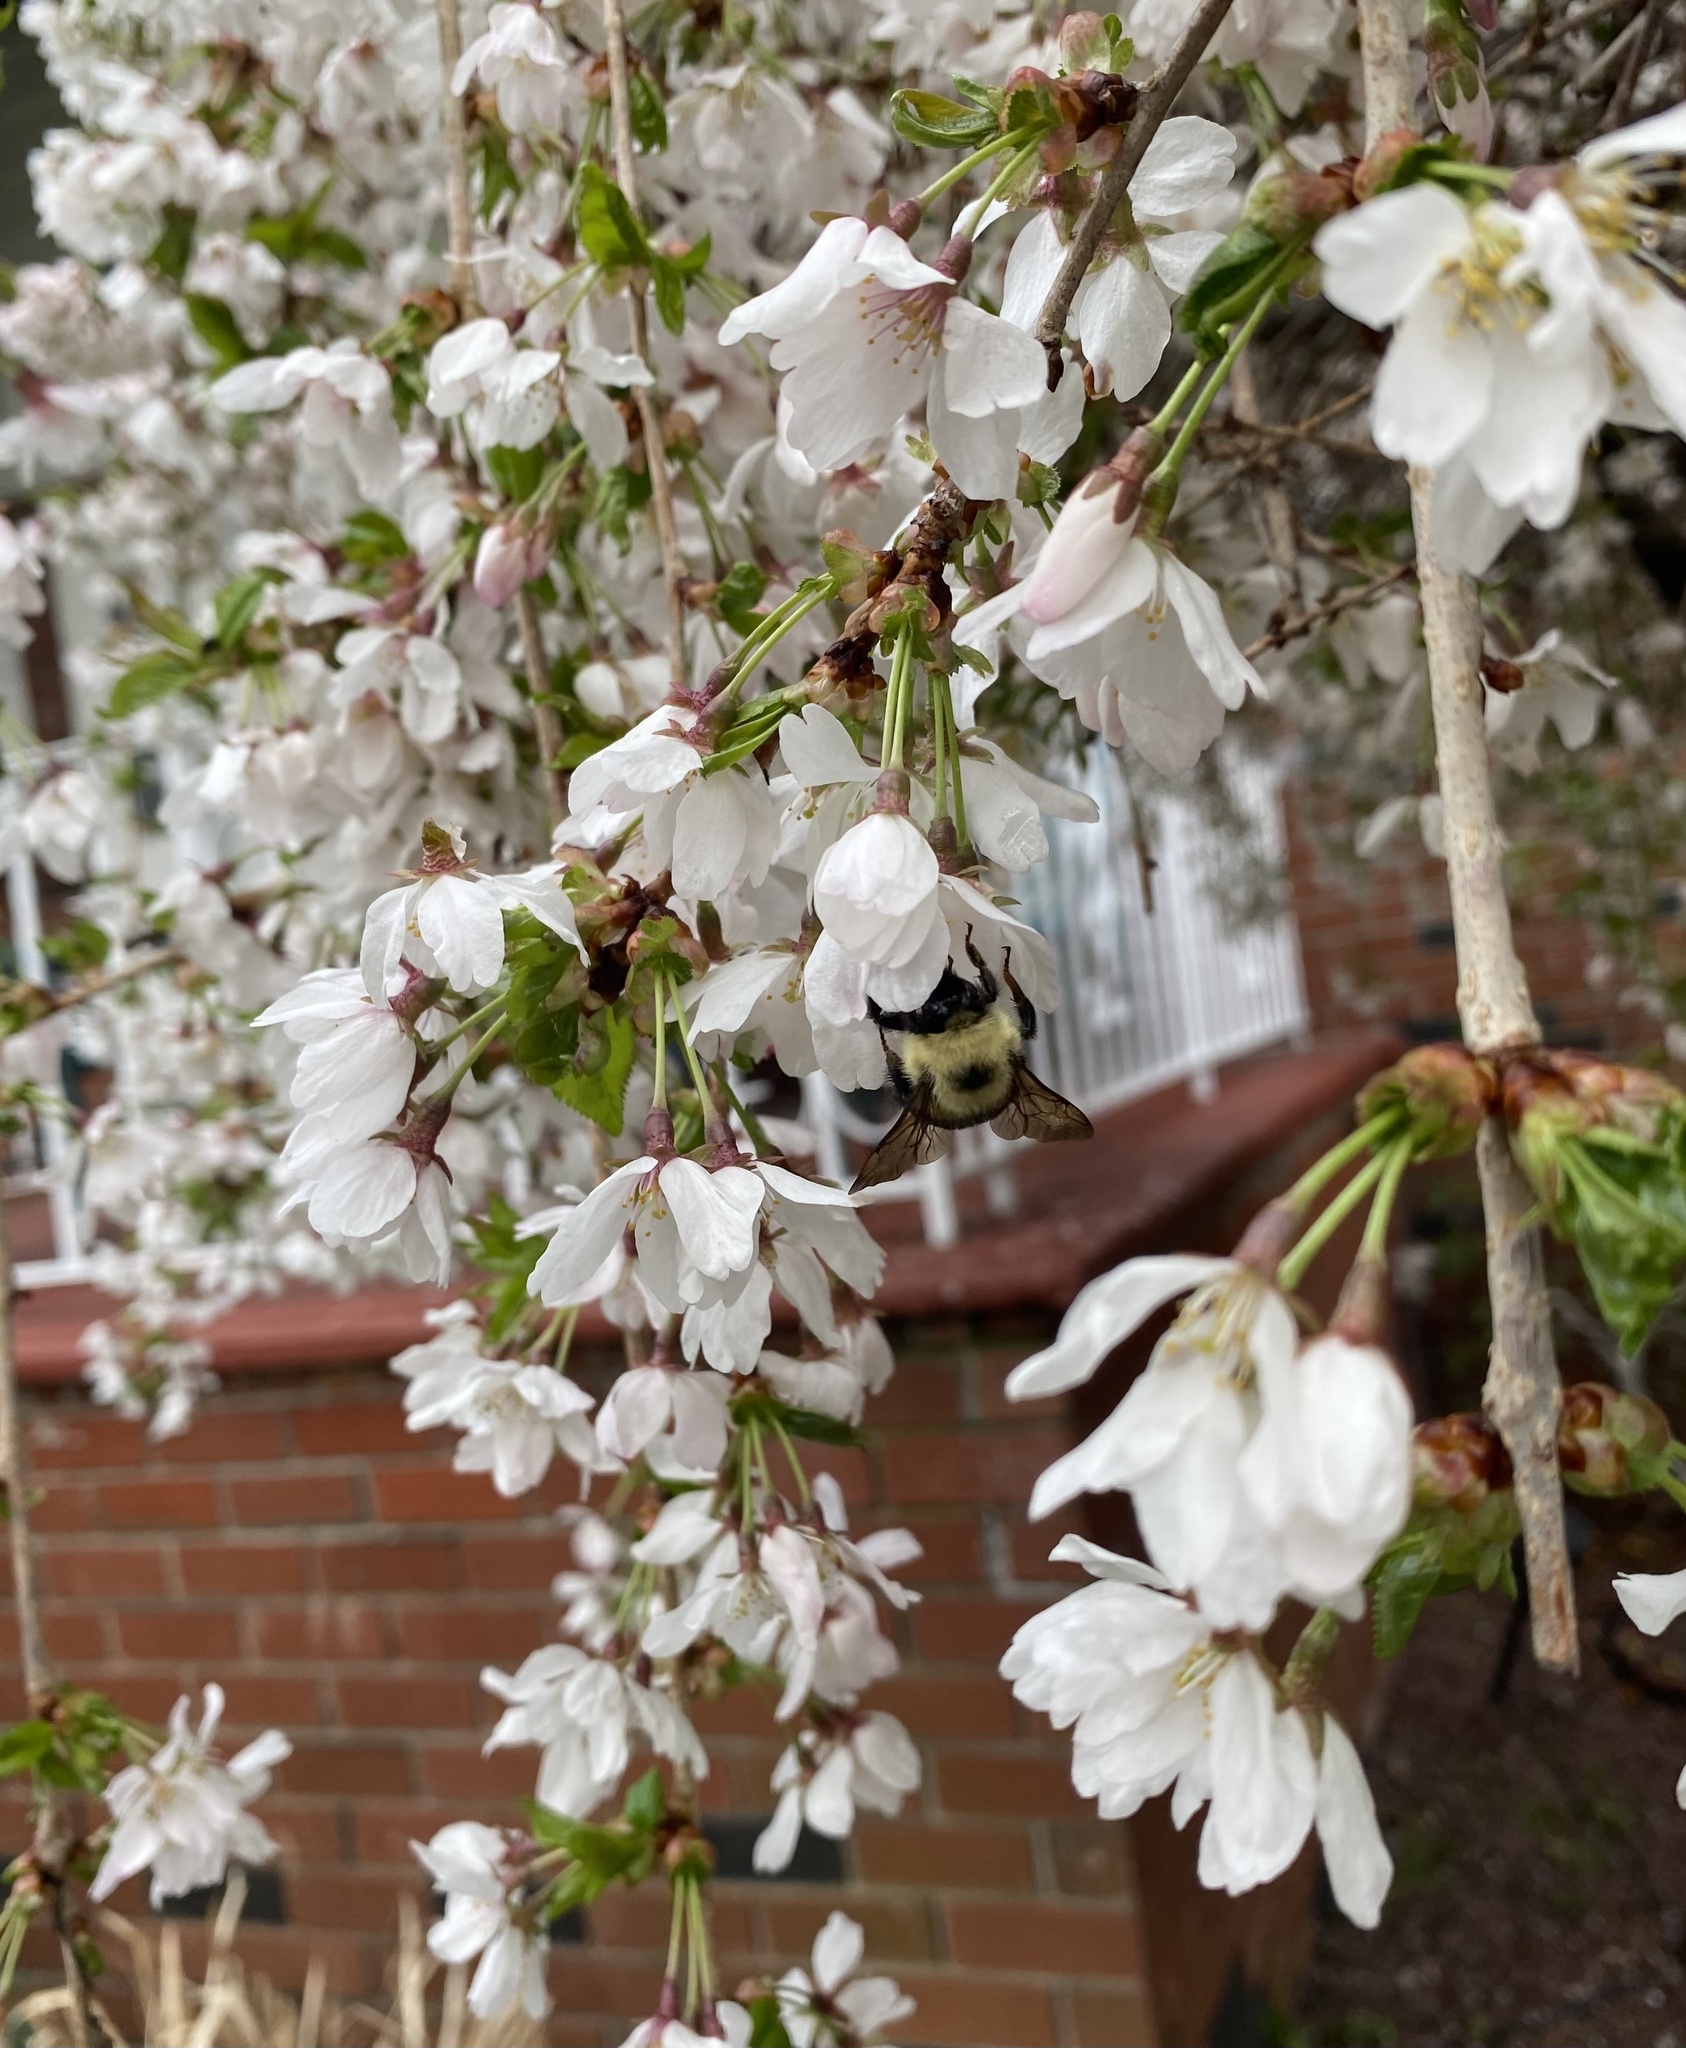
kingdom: Animalia
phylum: Arthropoda
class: Insecta
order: Hymenoptera
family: Apidae
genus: Bombus
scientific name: Bombus bimaculatus
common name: Two-spotted bumble bee
